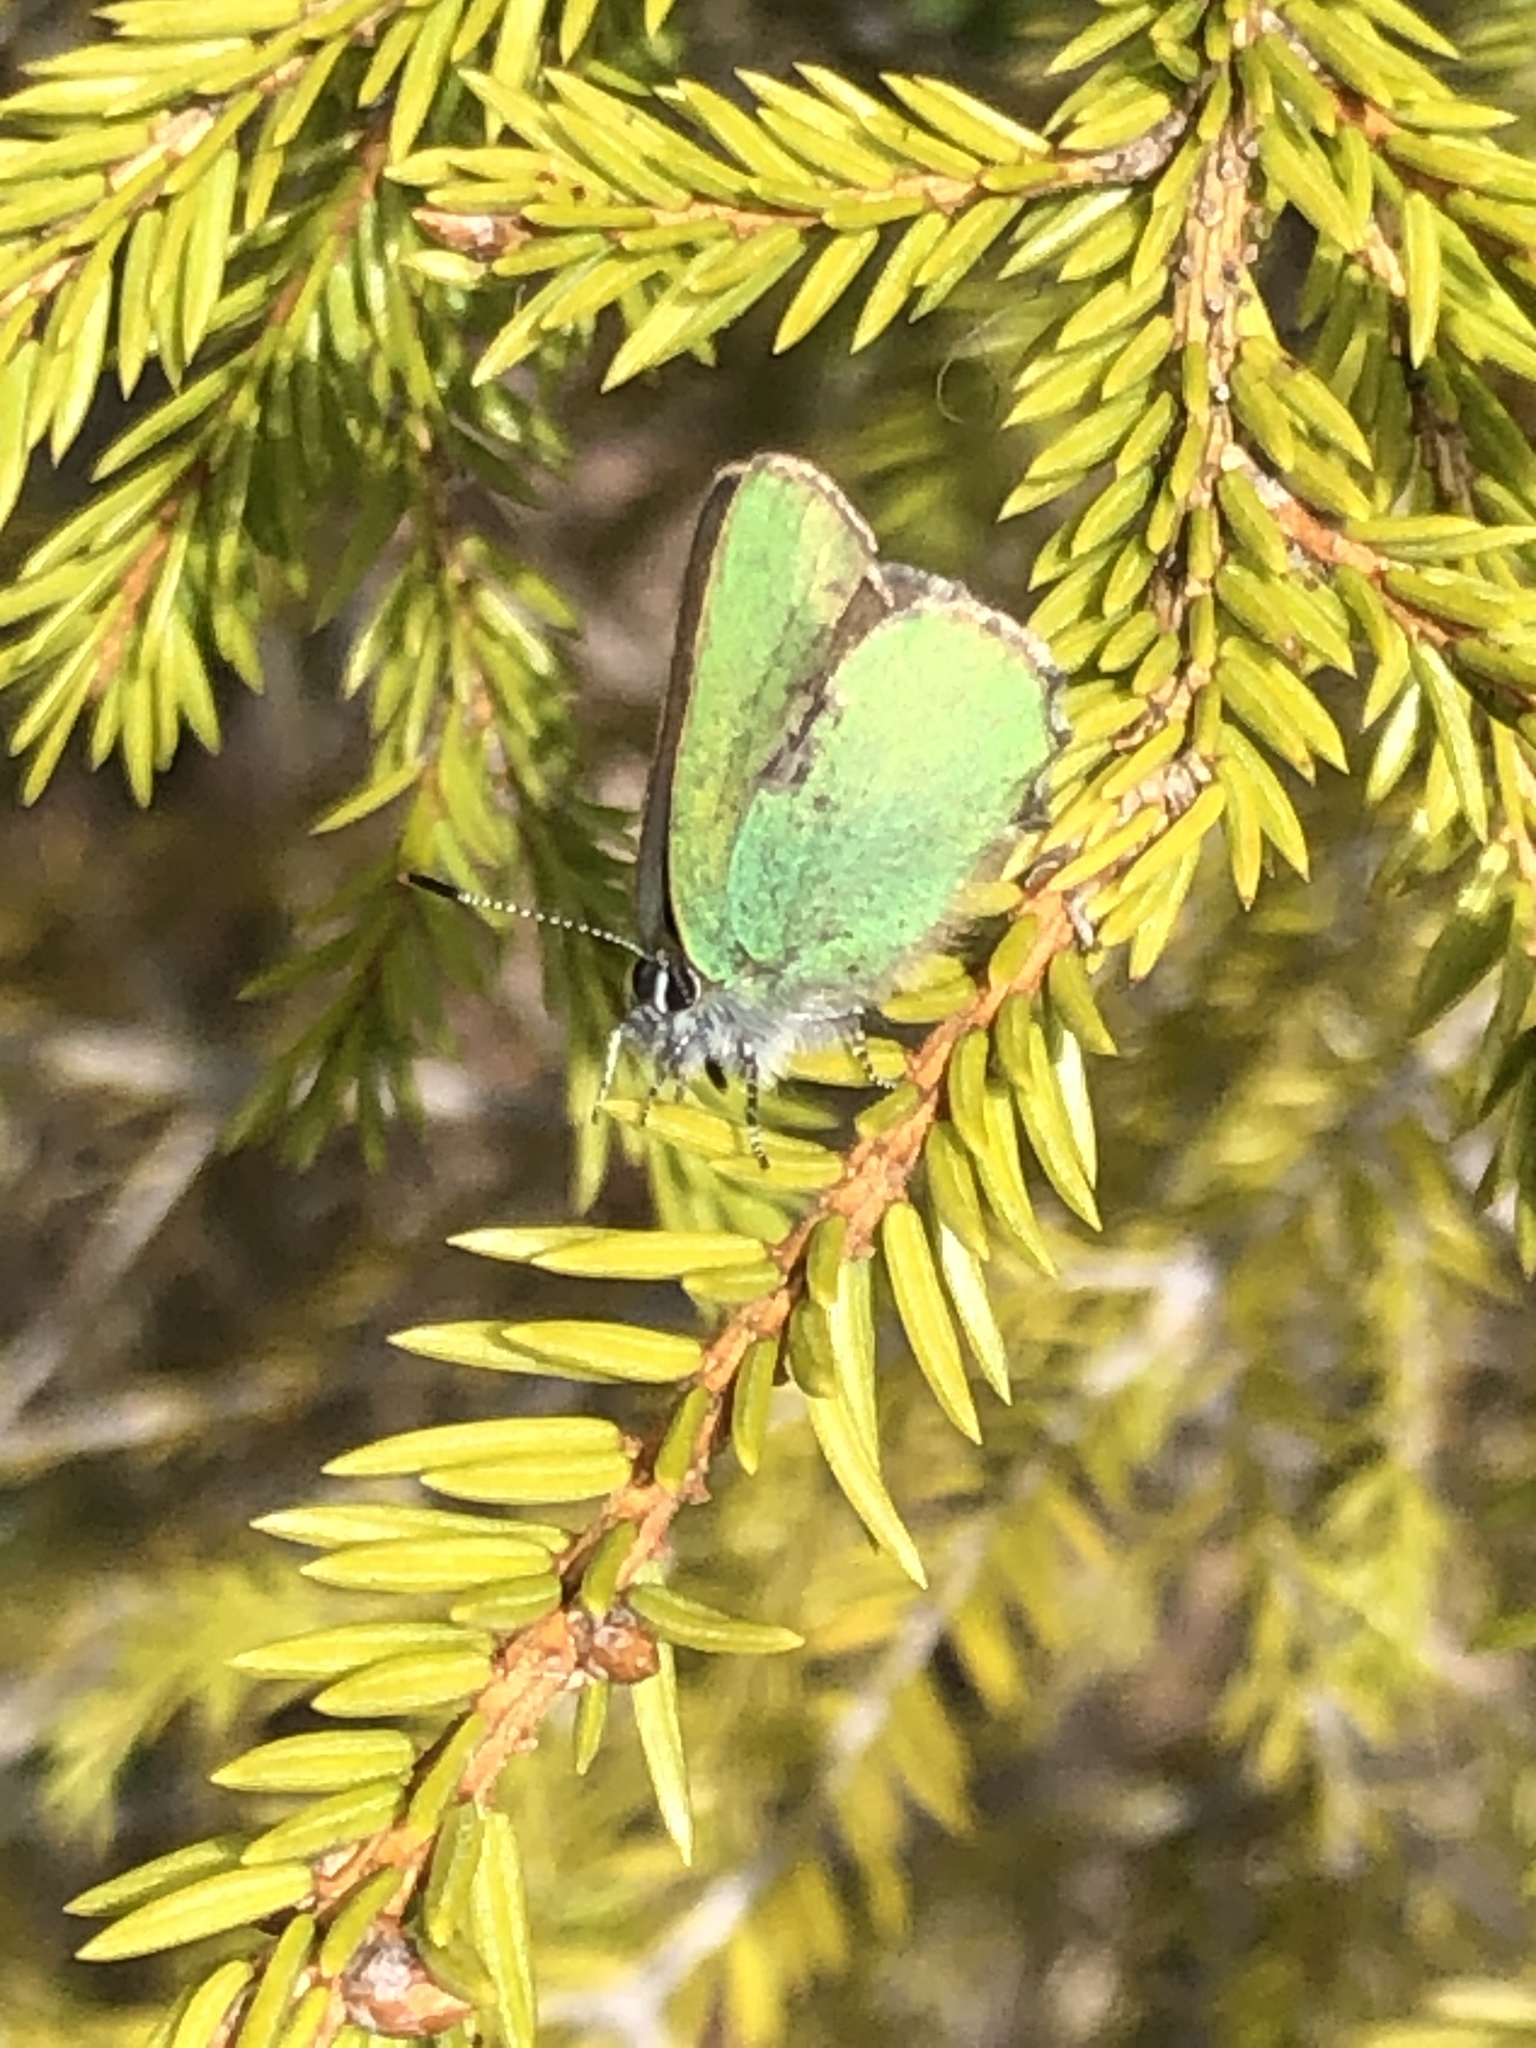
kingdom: Animalia
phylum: Arthropoda
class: Insecta
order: Lepidoptera
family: Lycaenidae
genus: Callophrys
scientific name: Callophrys rubi
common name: Green hairstreak
